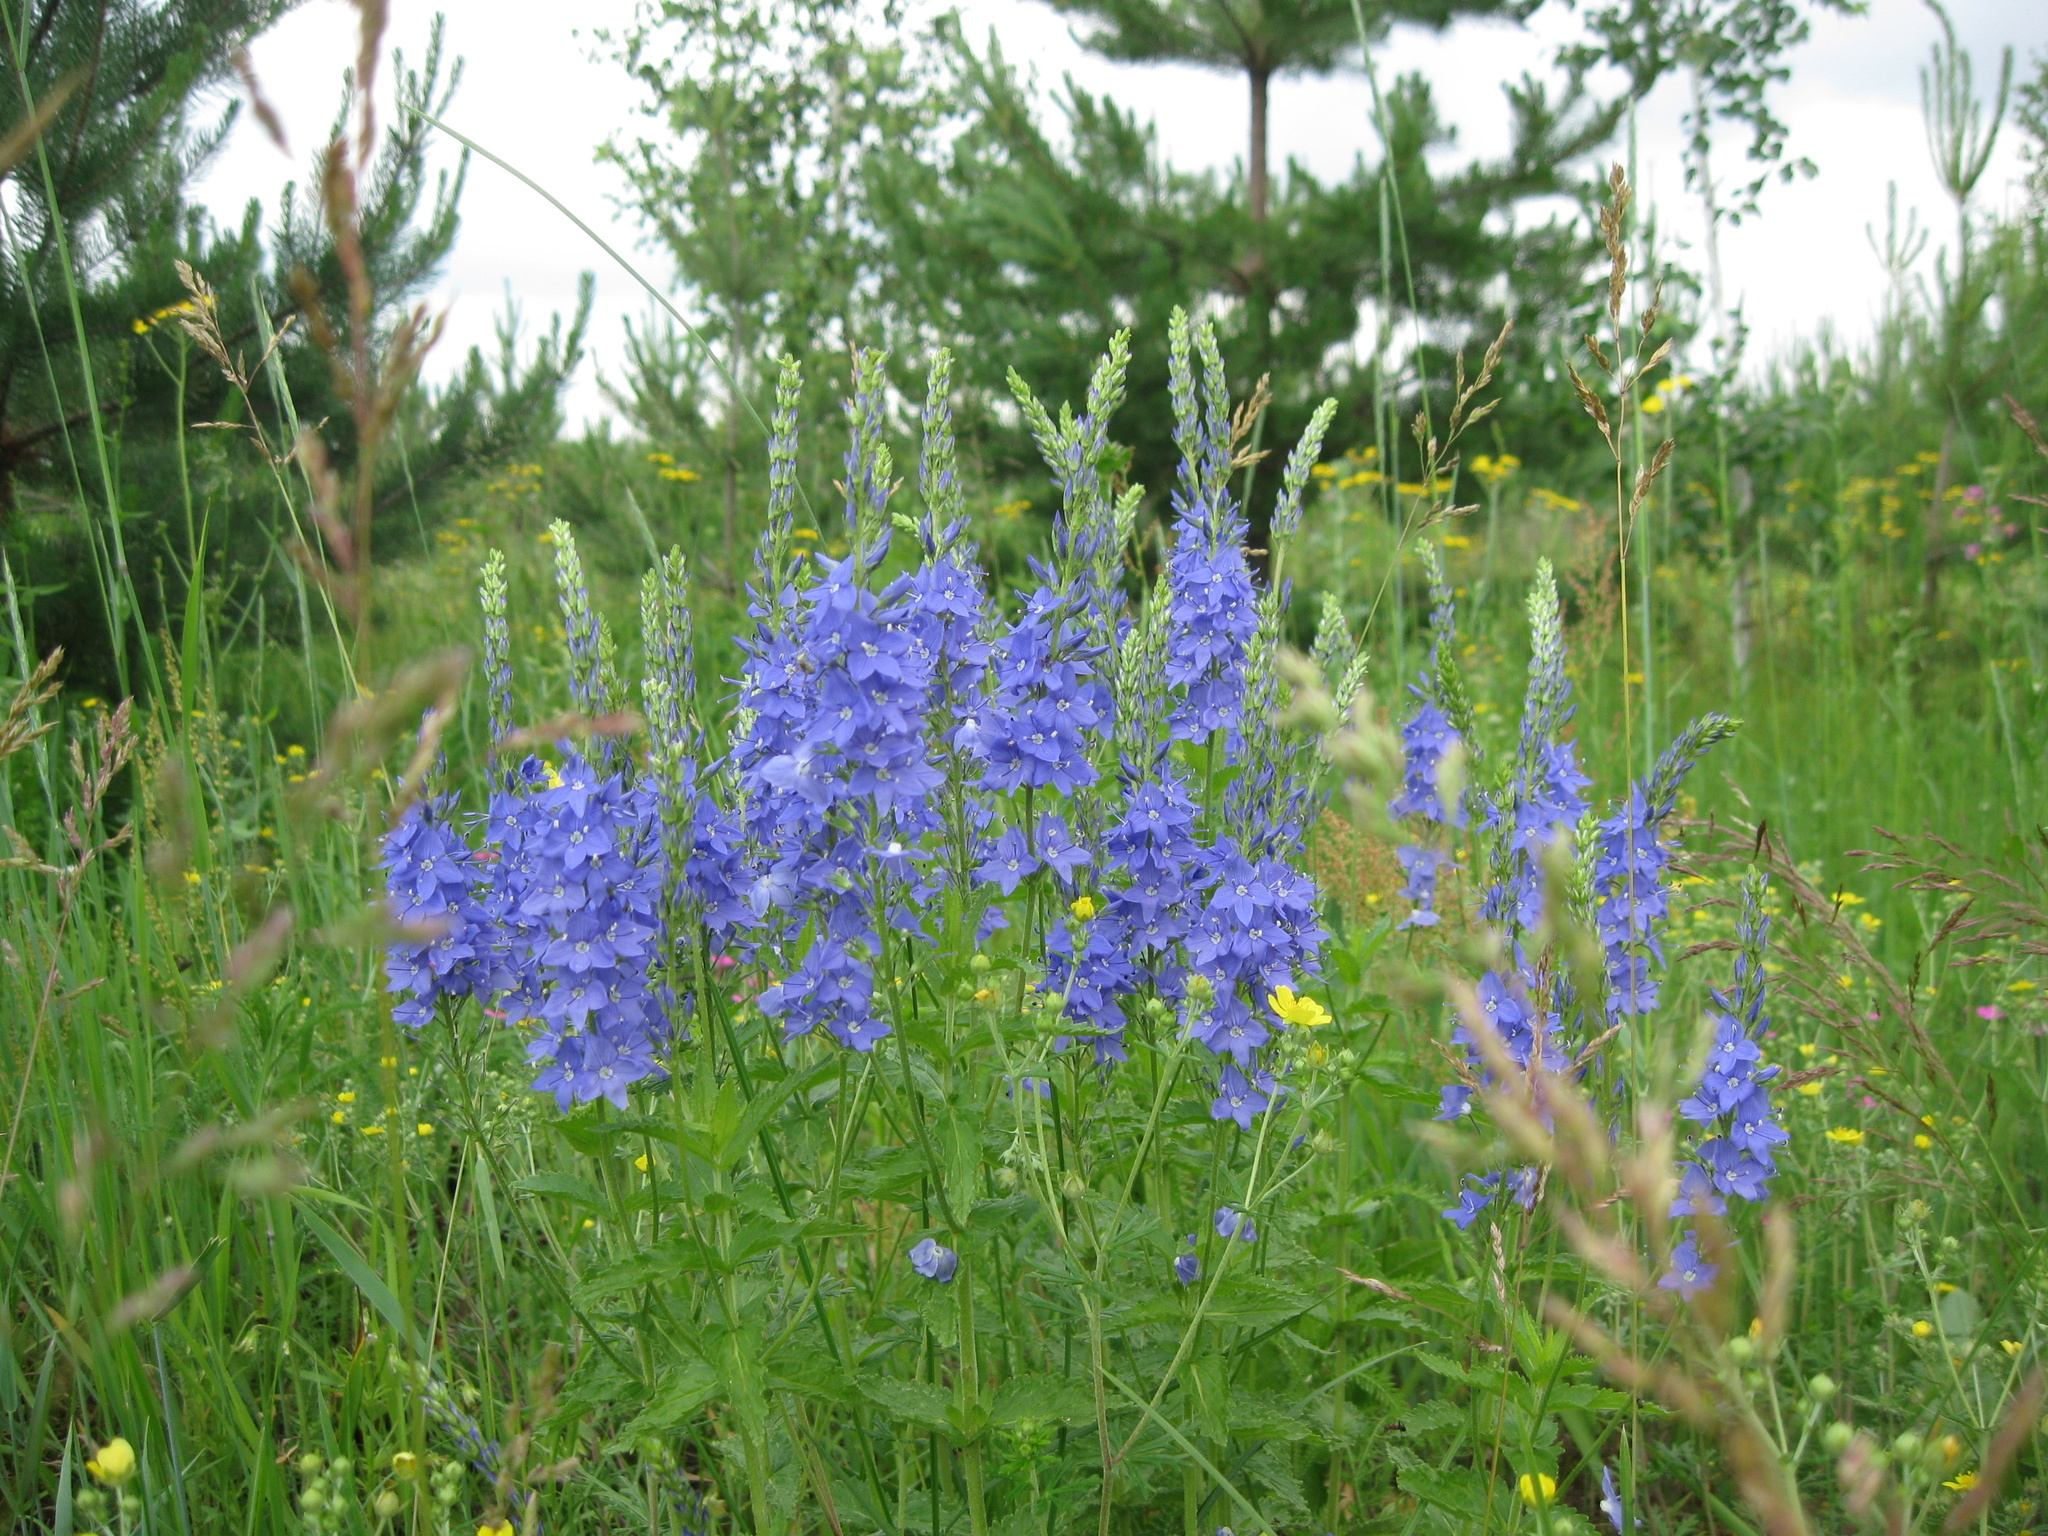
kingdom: Plantae
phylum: Tracheophyta
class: Magnoliopsida
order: Lamiales
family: Plantaginaceae
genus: Veronica
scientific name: Veronica teucrium
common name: Large speedwell
